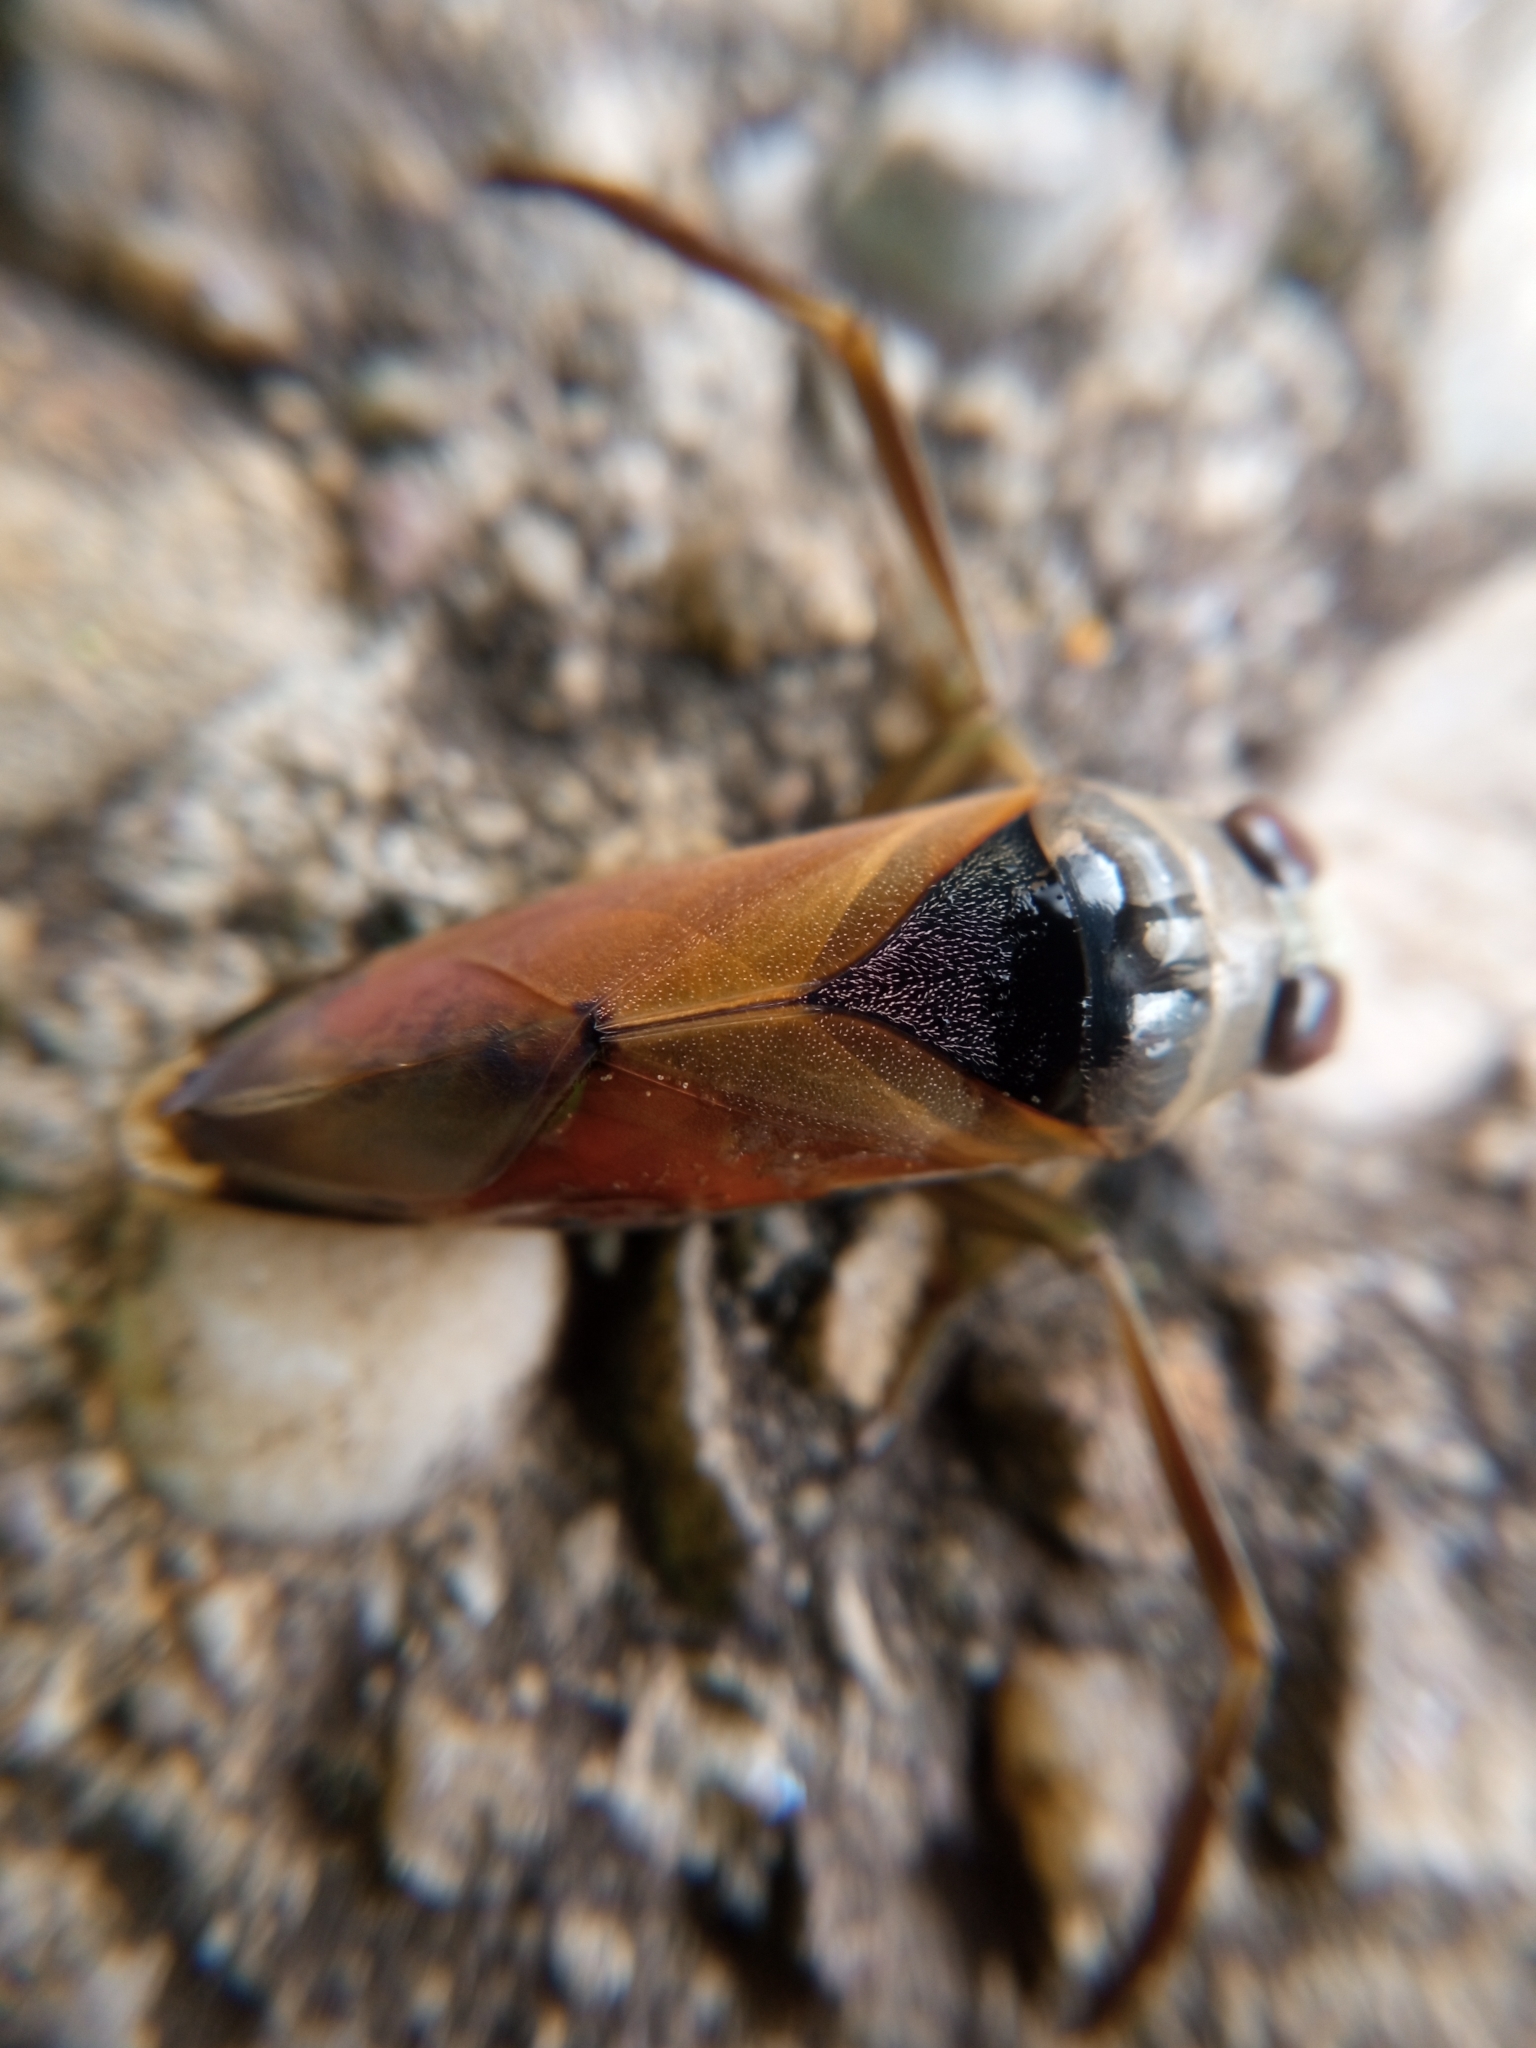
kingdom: Animalia
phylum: Arthropoda
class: Insecta
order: Hemiptera
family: Notonectidae
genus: Notonecta
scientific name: Notonecta glauca
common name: Common water-boatman
